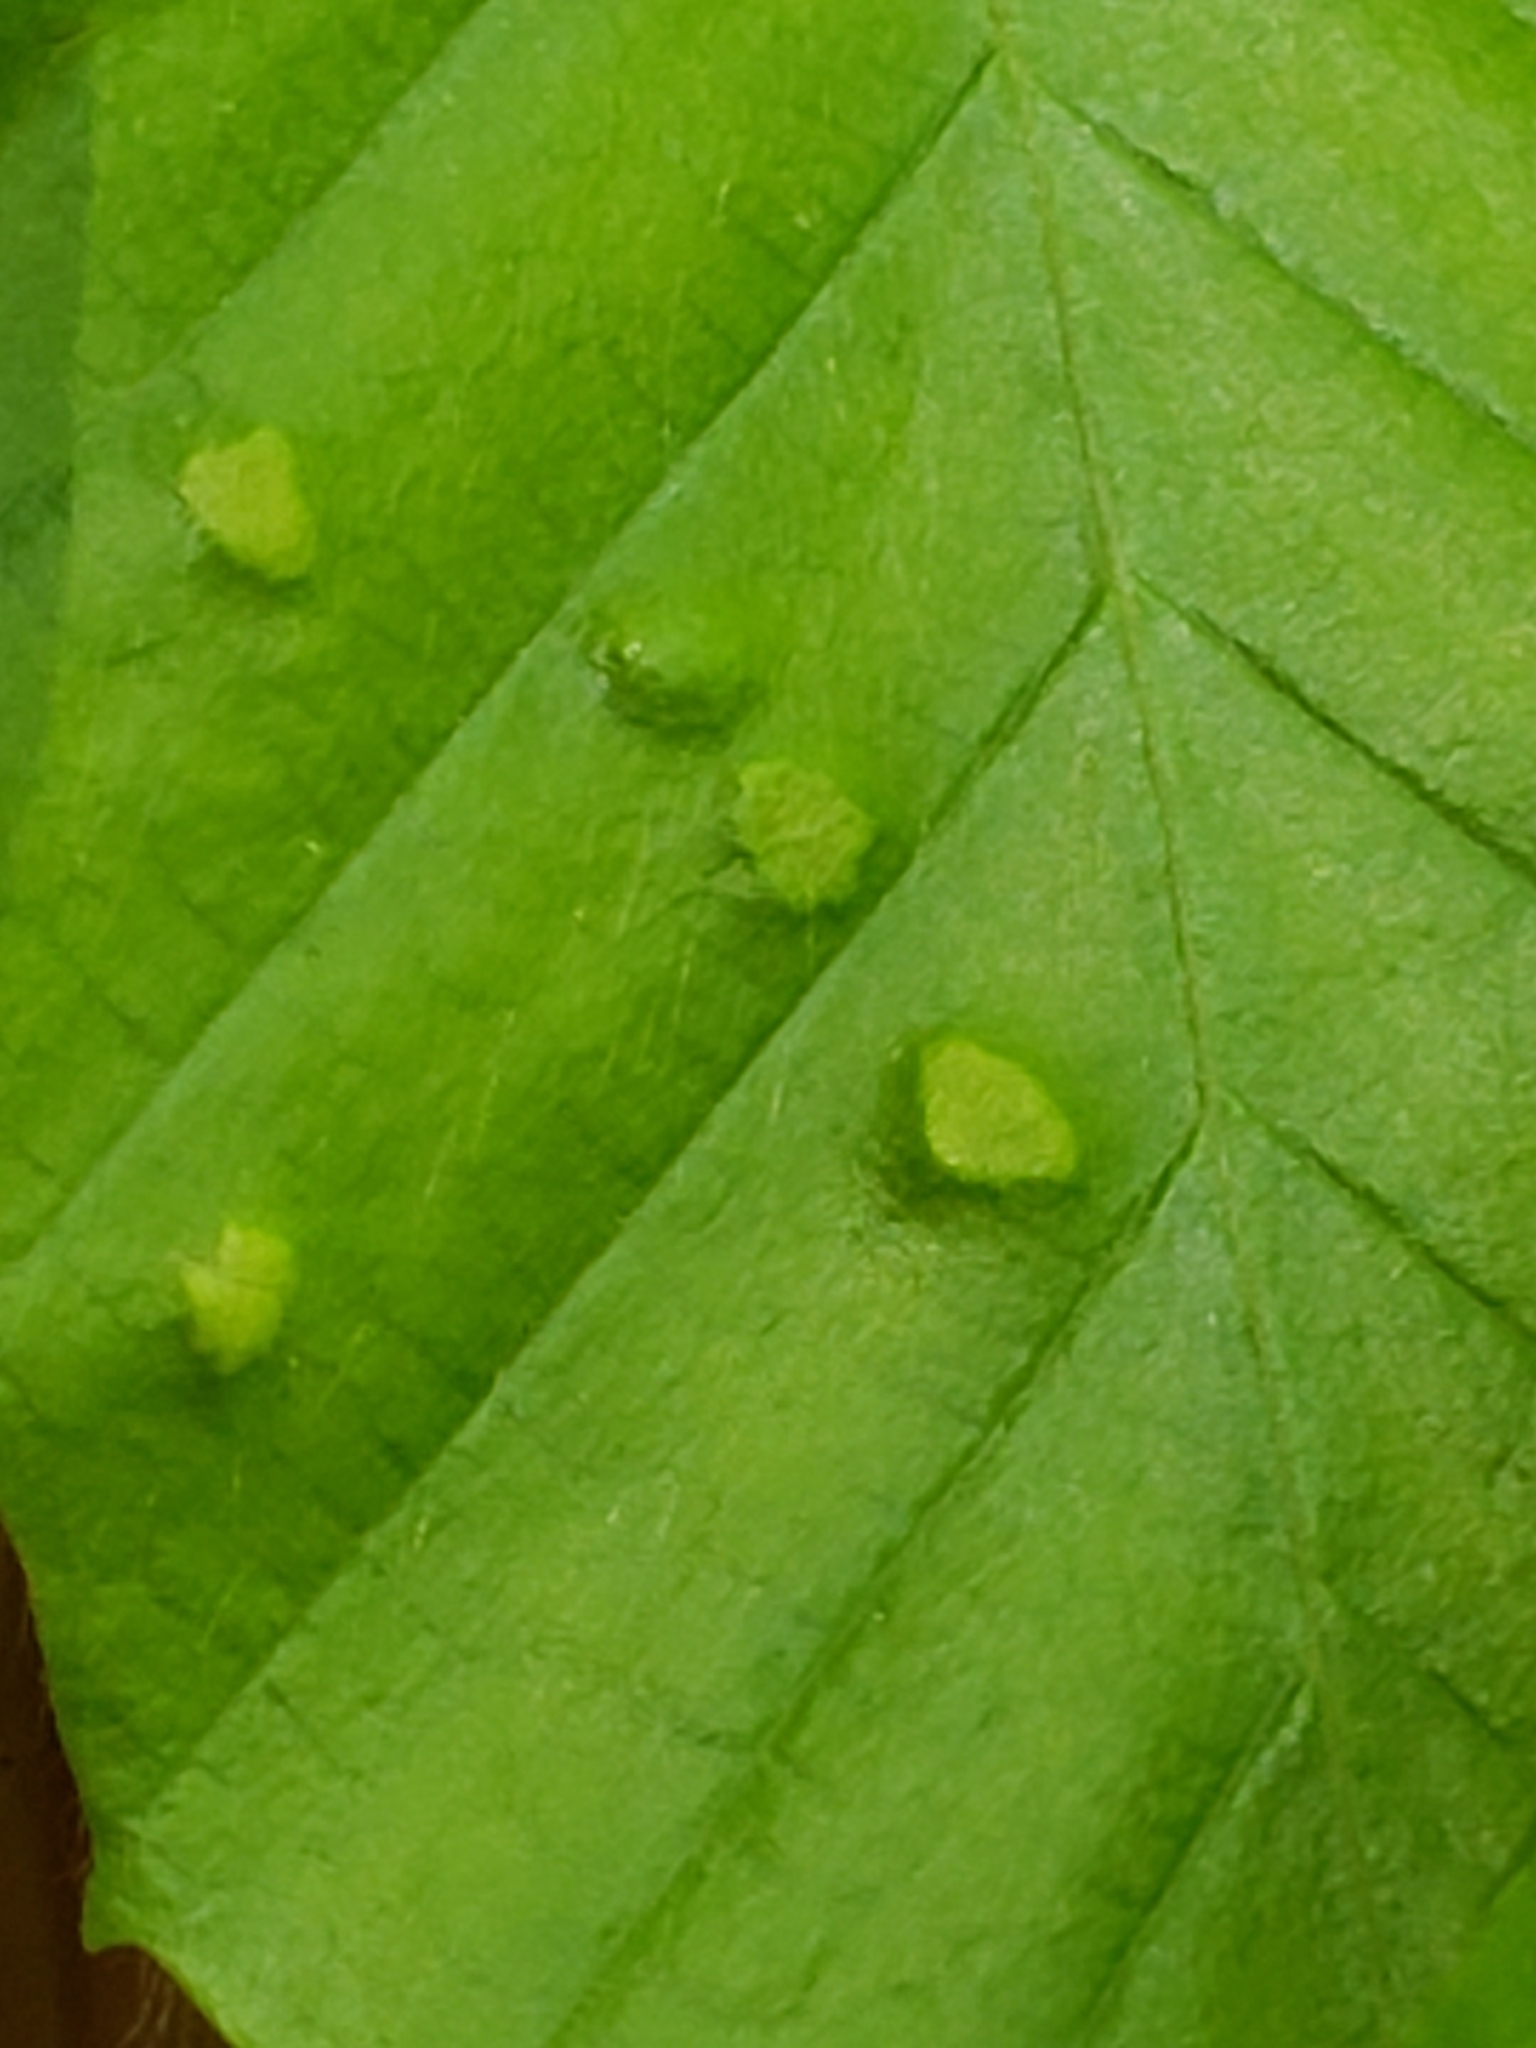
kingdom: Animalia
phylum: Arthropoda
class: Arachnida
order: Trombidiformes
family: Eriophyidae
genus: Acalitus
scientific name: Acalitus
